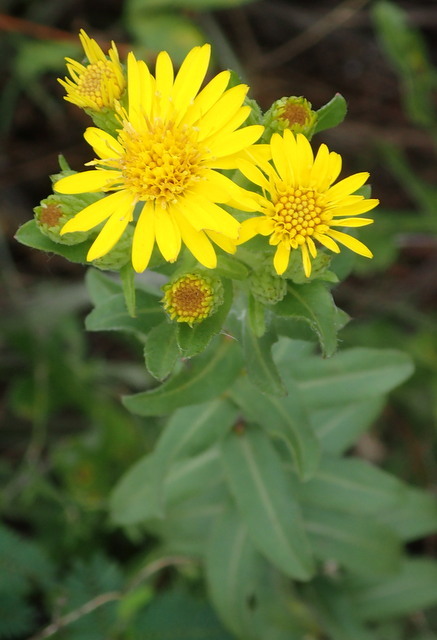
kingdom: Plantae
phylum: Tracheophyta
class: Magnoliopsida
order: Asterales
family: Asteraceae
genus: Chrysopsis
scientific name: Chrysopsis mariana
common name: Maryland golden-aster
